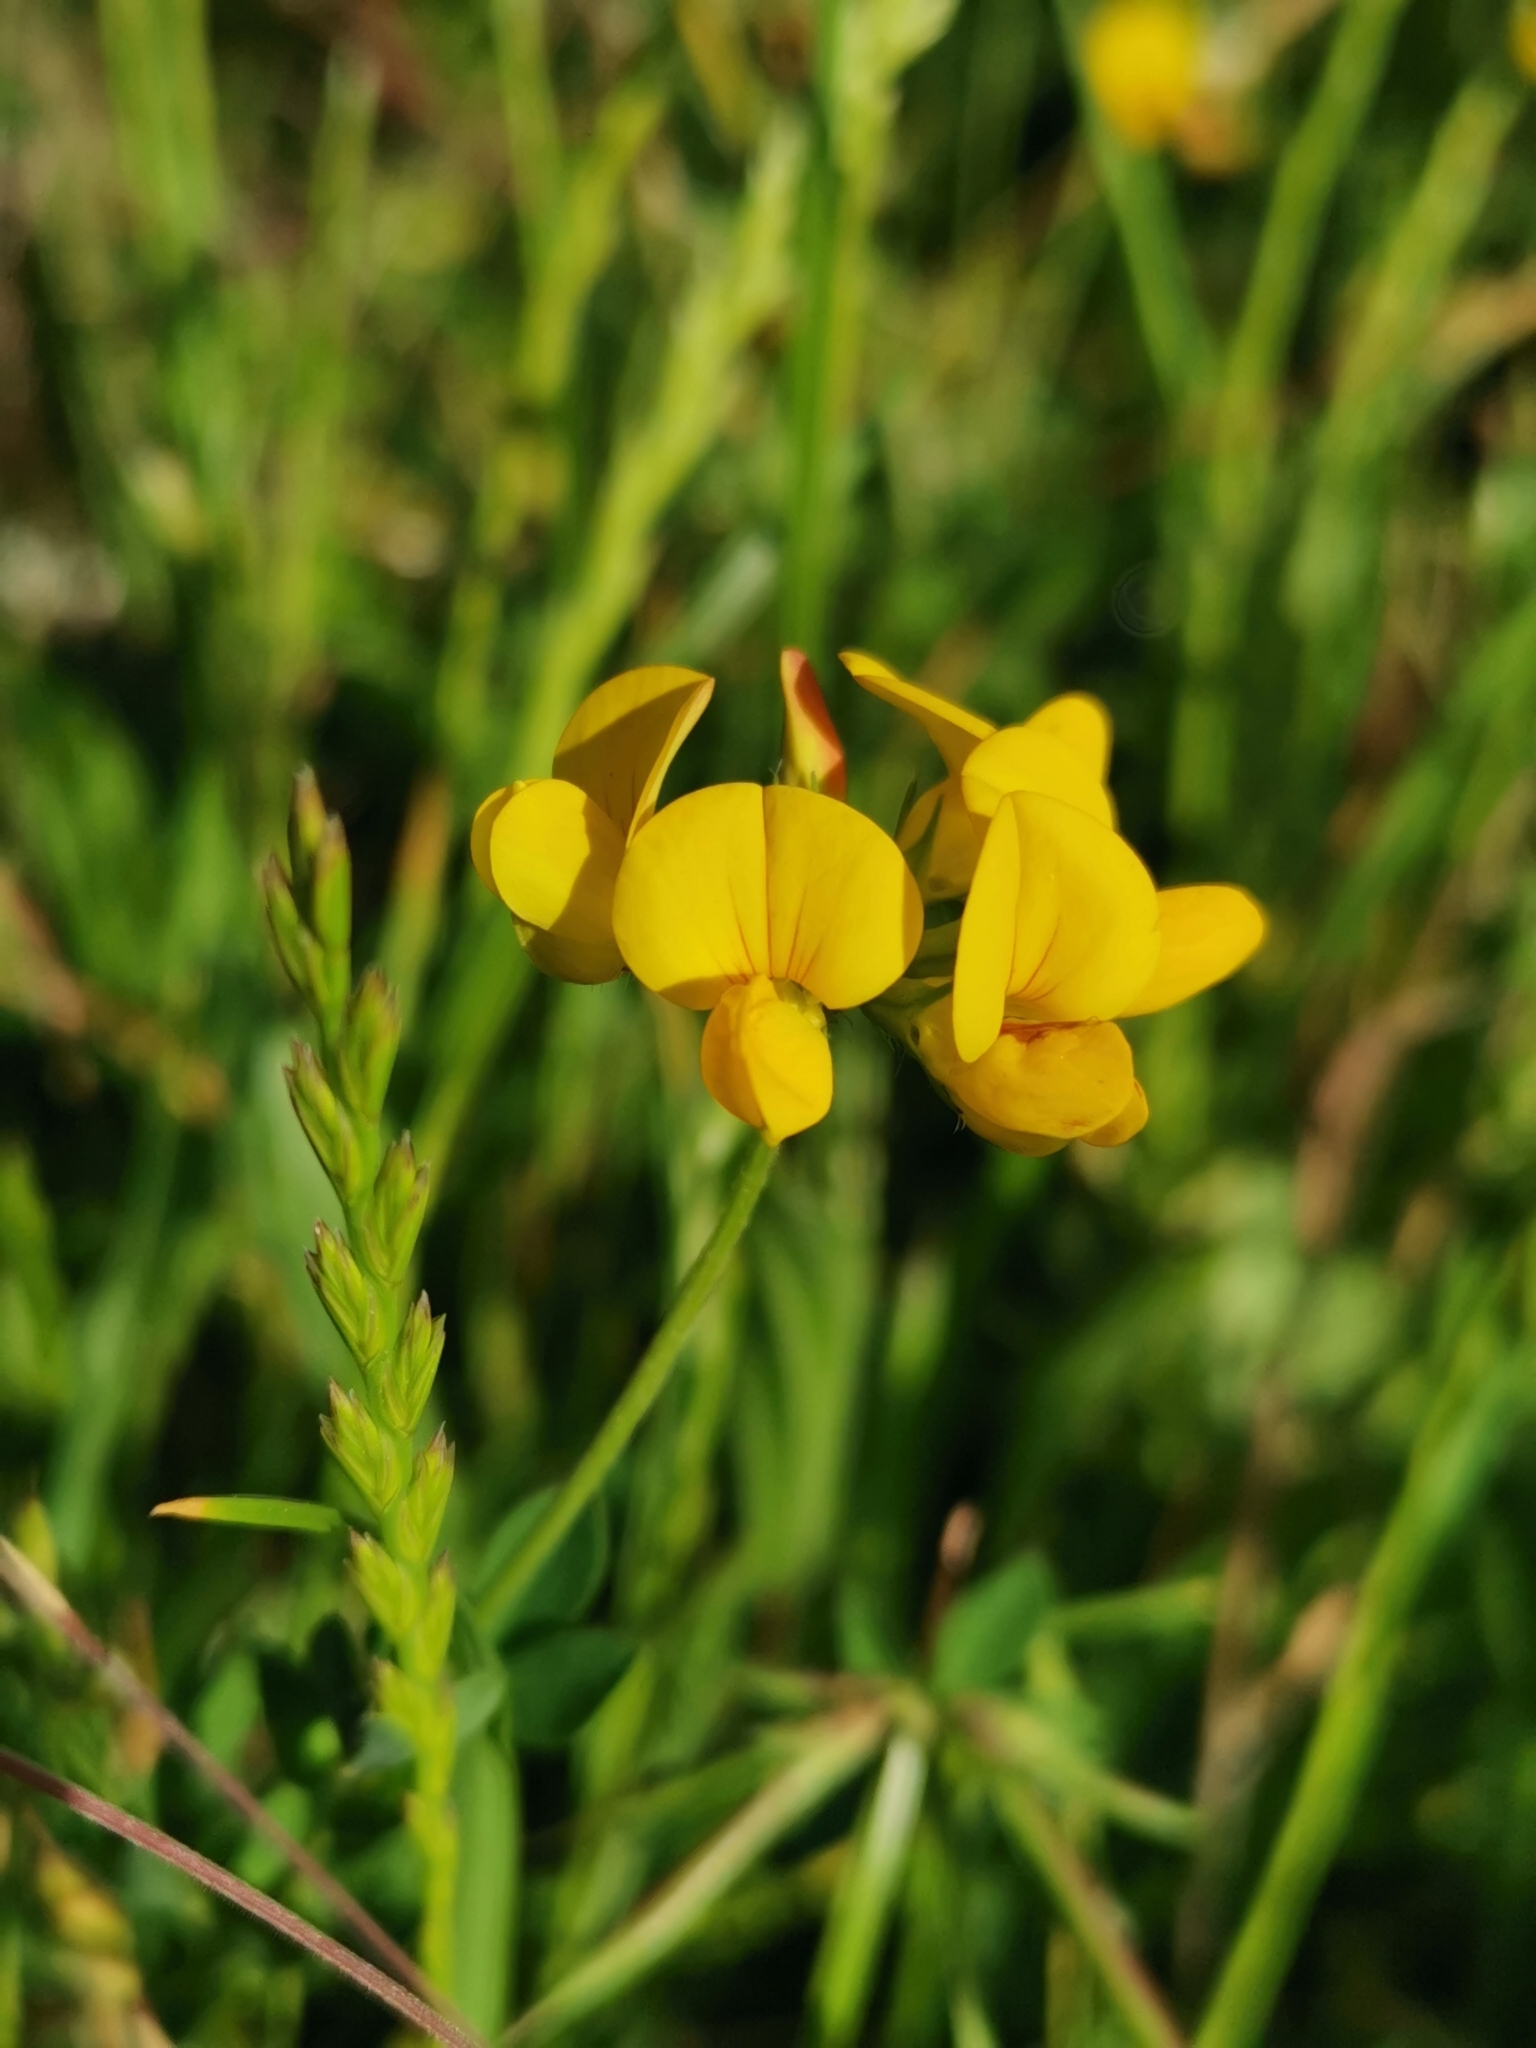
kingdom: Plantae
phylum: Tracheophyta
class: Magnoliopsida
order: Fabales
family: Fabaceae
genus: Lotus
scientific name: Lotus corniculatus
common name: Common bird's-foot-trefoil
